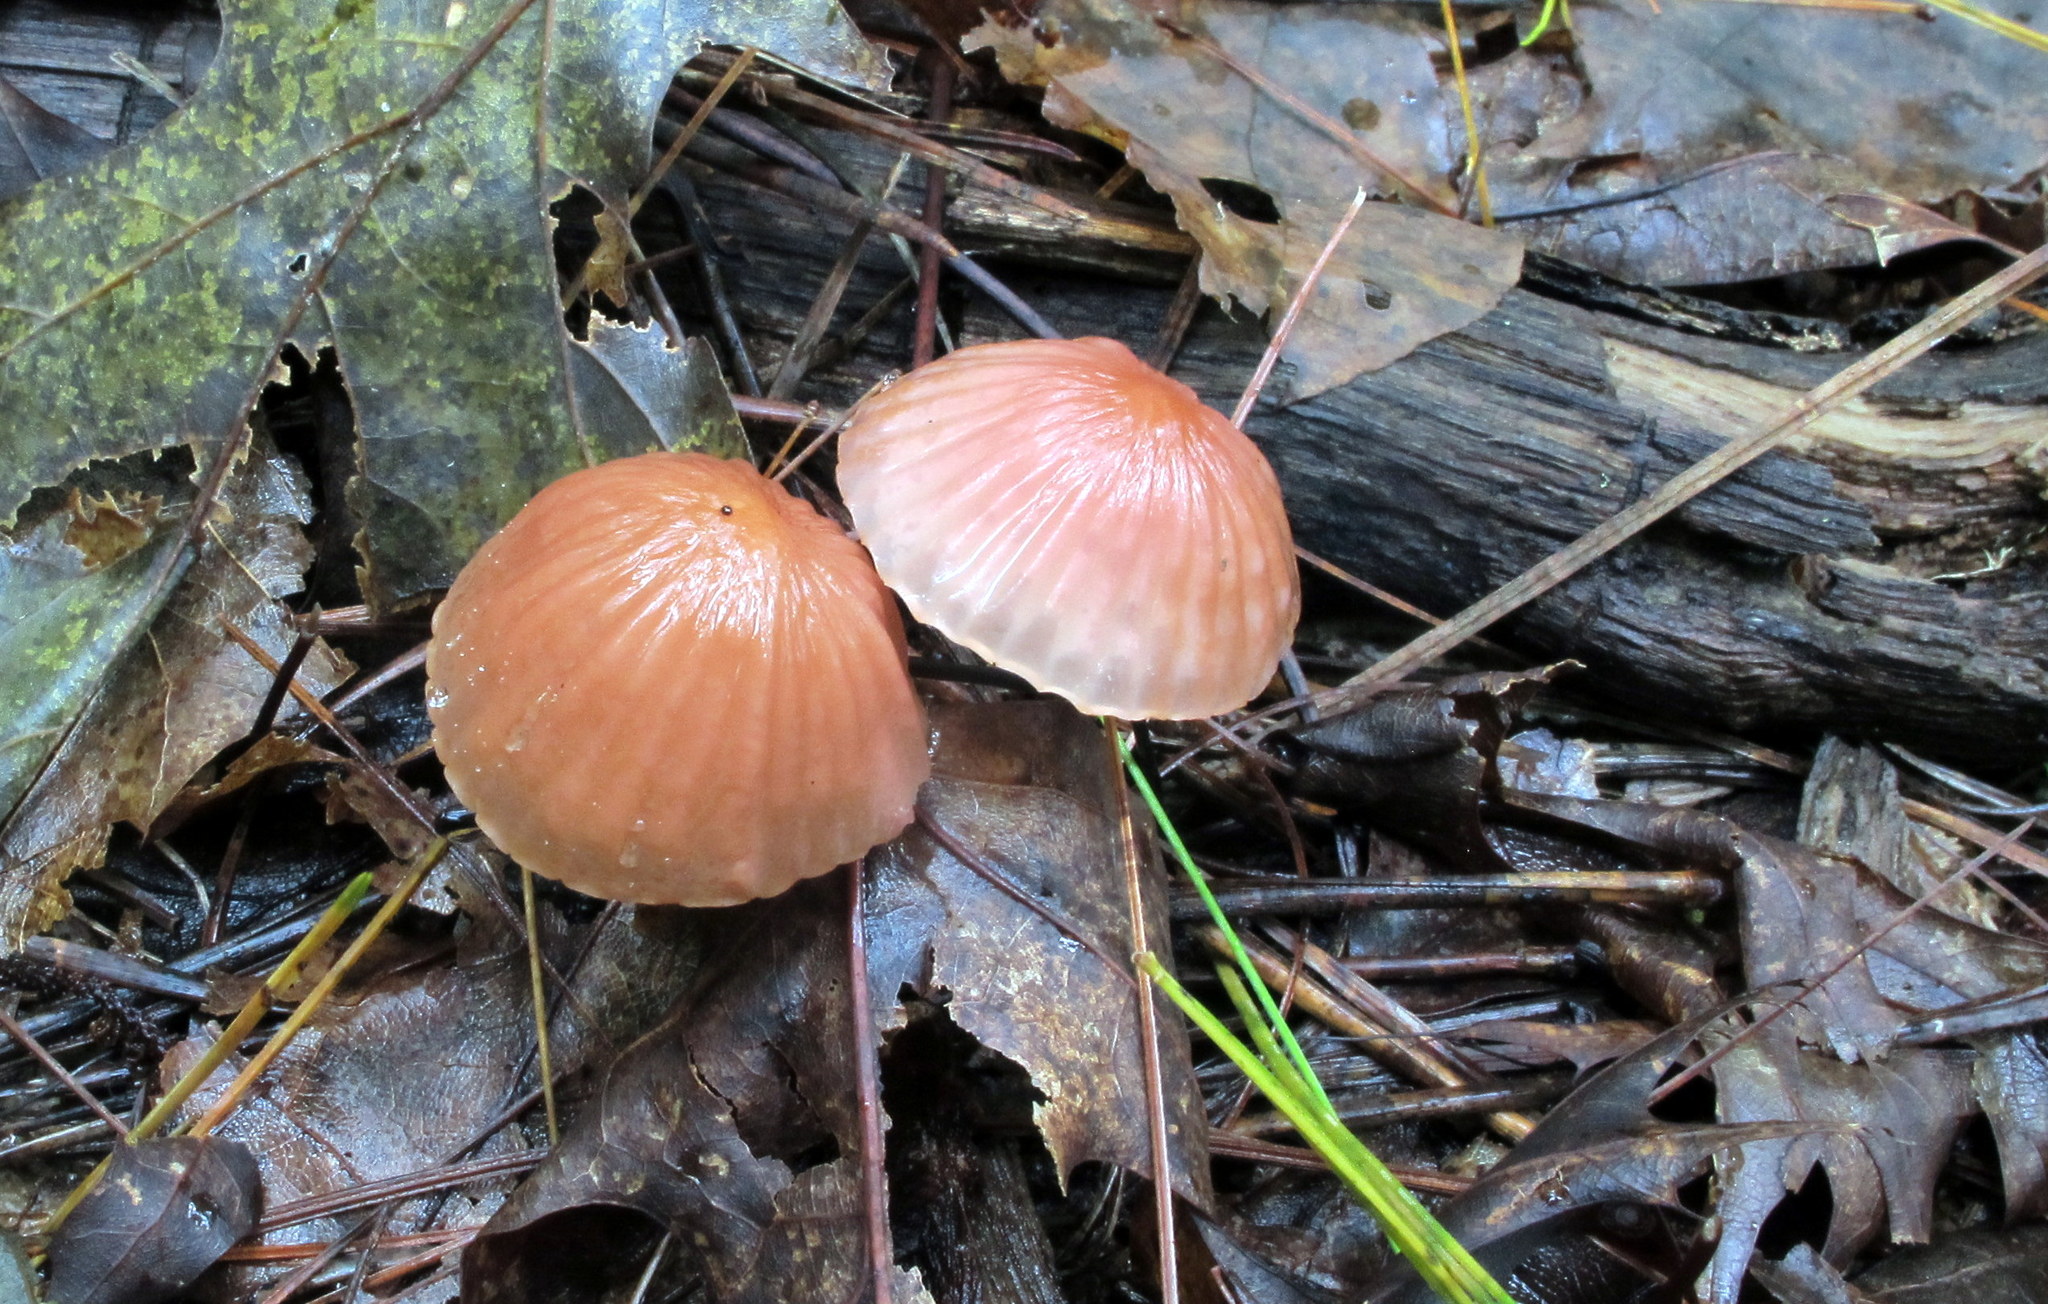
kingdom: Fungi
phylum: Basidiomycota
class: Agaricomycetes
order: Agaricales
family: Marasmiaceae
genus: Marasmius
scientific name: Marasmius fulvoferrugineus
